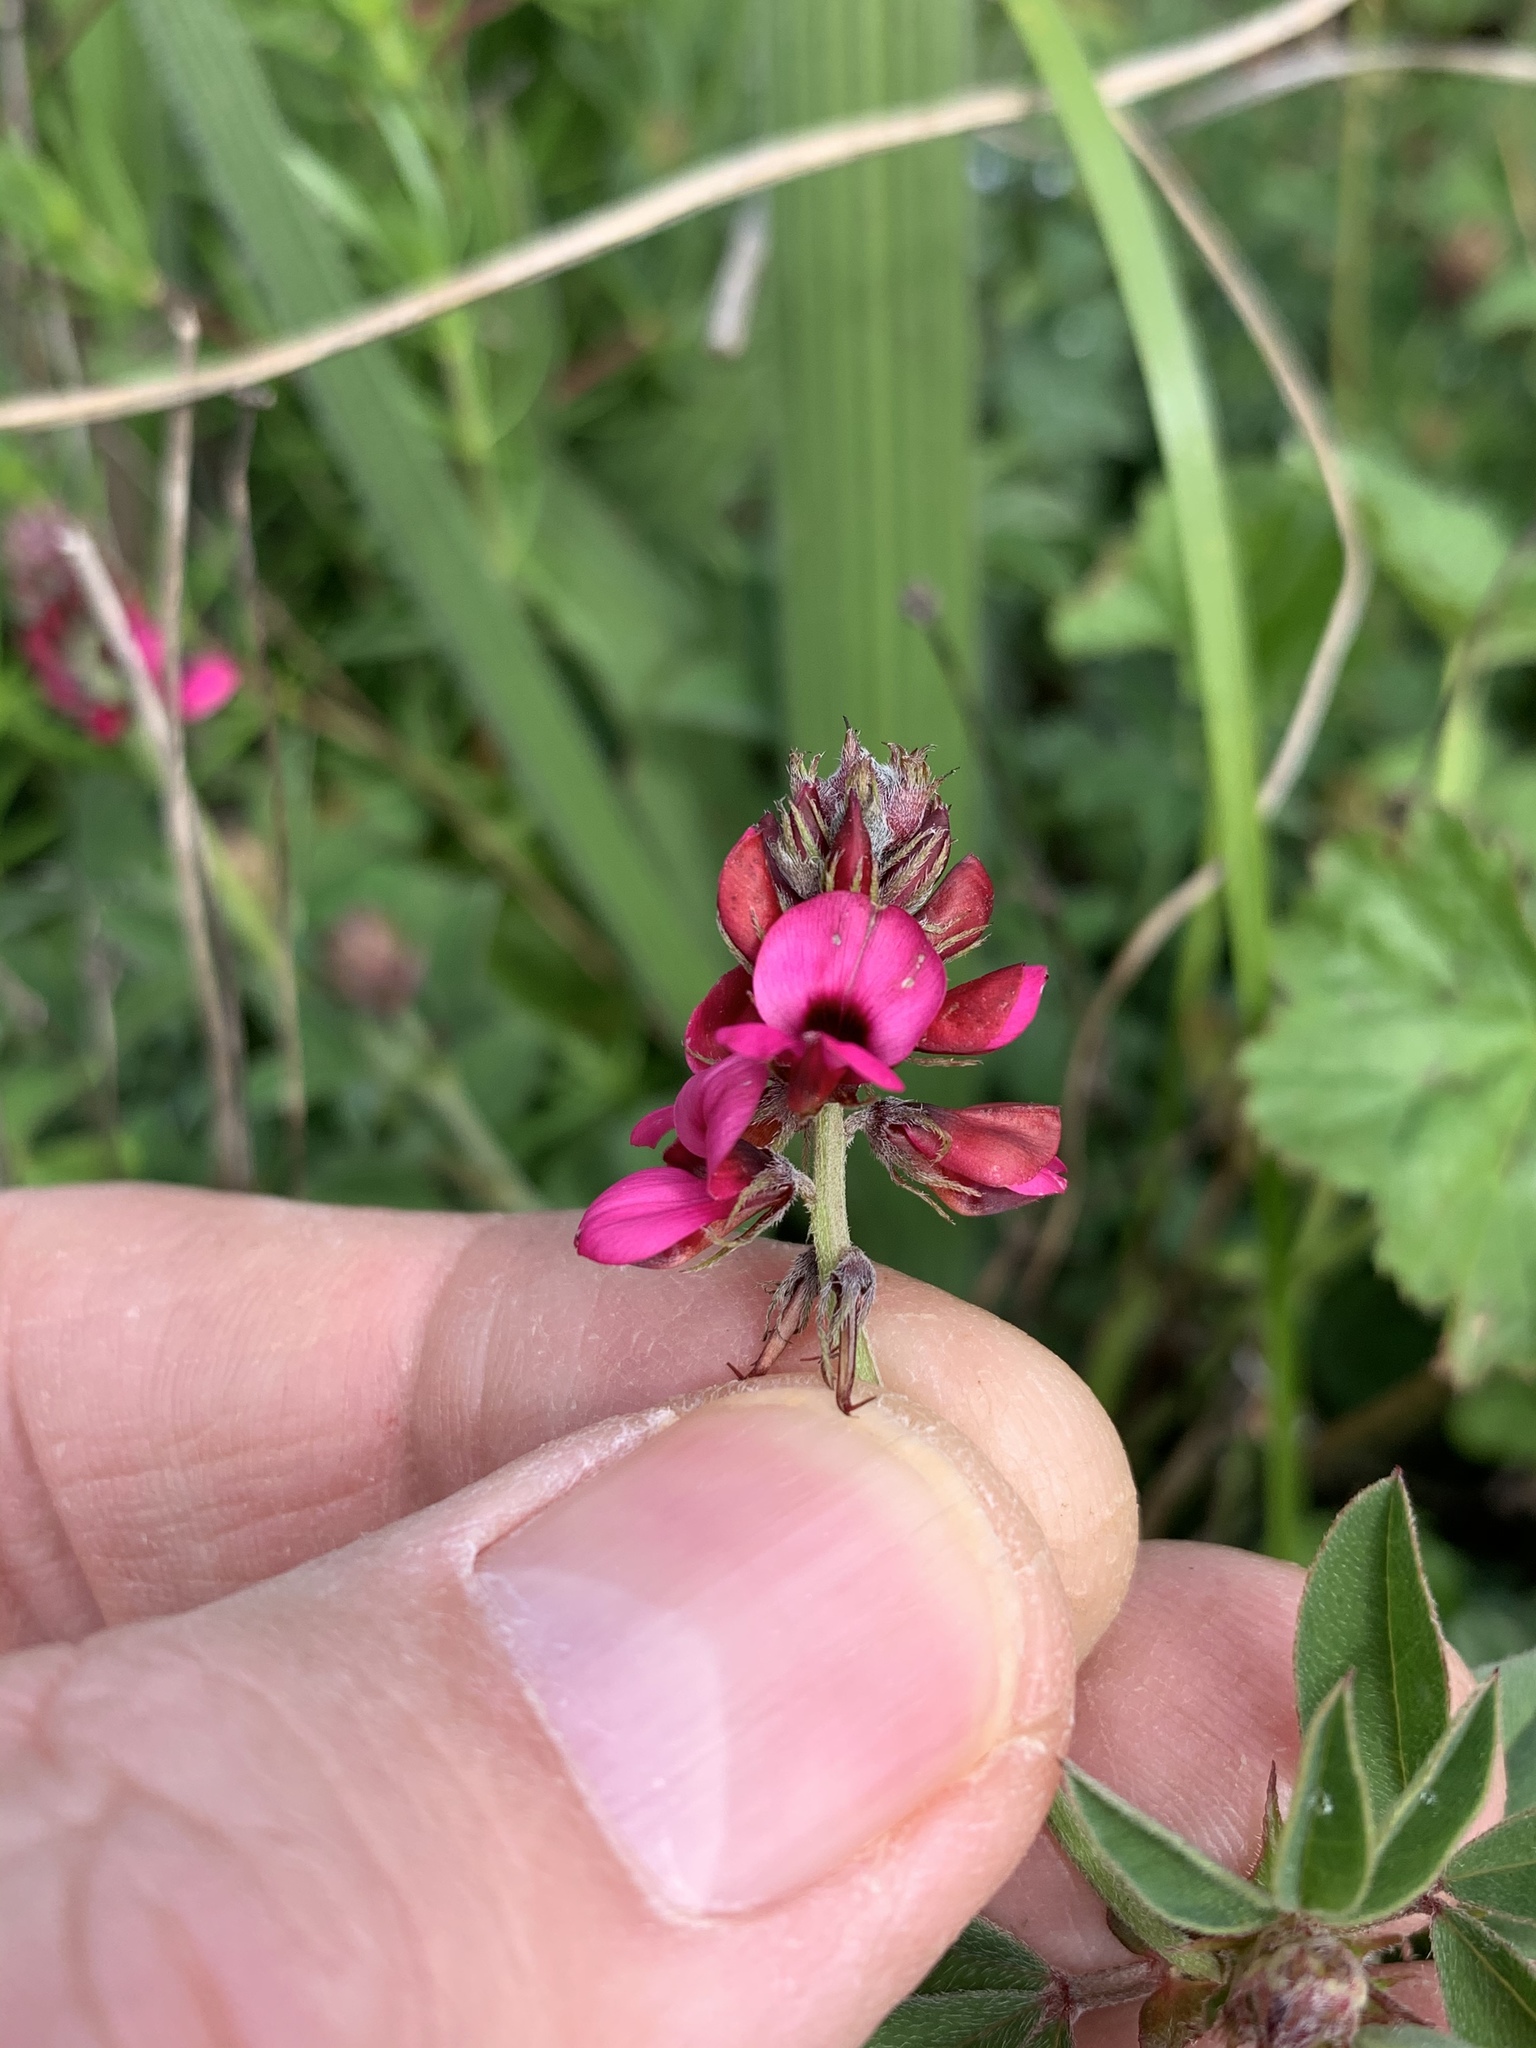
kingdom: Plantae
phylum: Tracheophyta
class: Magnoliopsida
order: Fabales
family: Fabaceae
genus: Indigofera
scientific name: Indigofera incana
